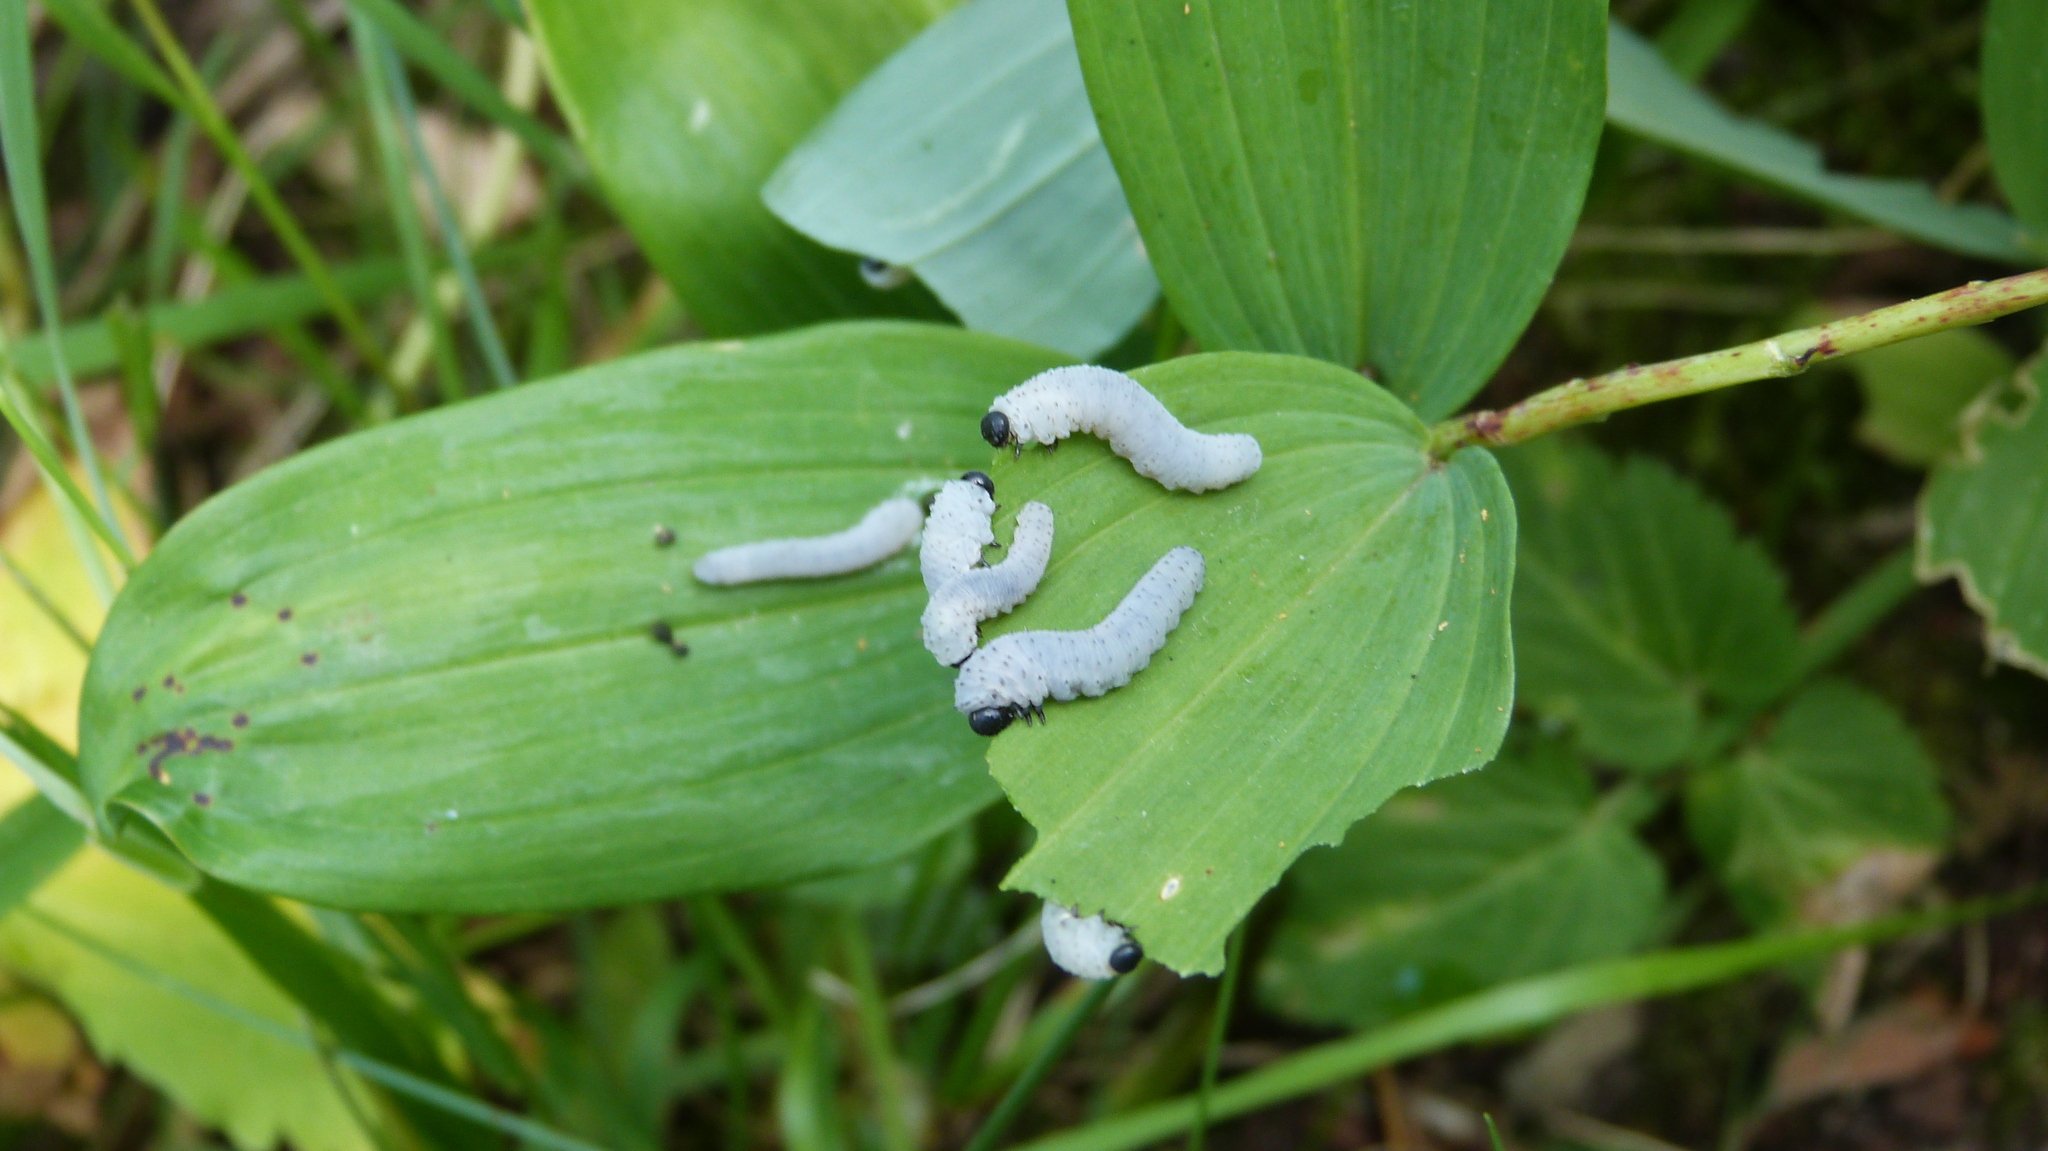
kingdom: Animalia
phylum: Arthropoda
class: Insecta
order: Hymenoptera
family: Tenthredinidae
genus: Phymatocera
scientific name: Phymatocera aterrima
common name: Solomon's-seal sawfly
